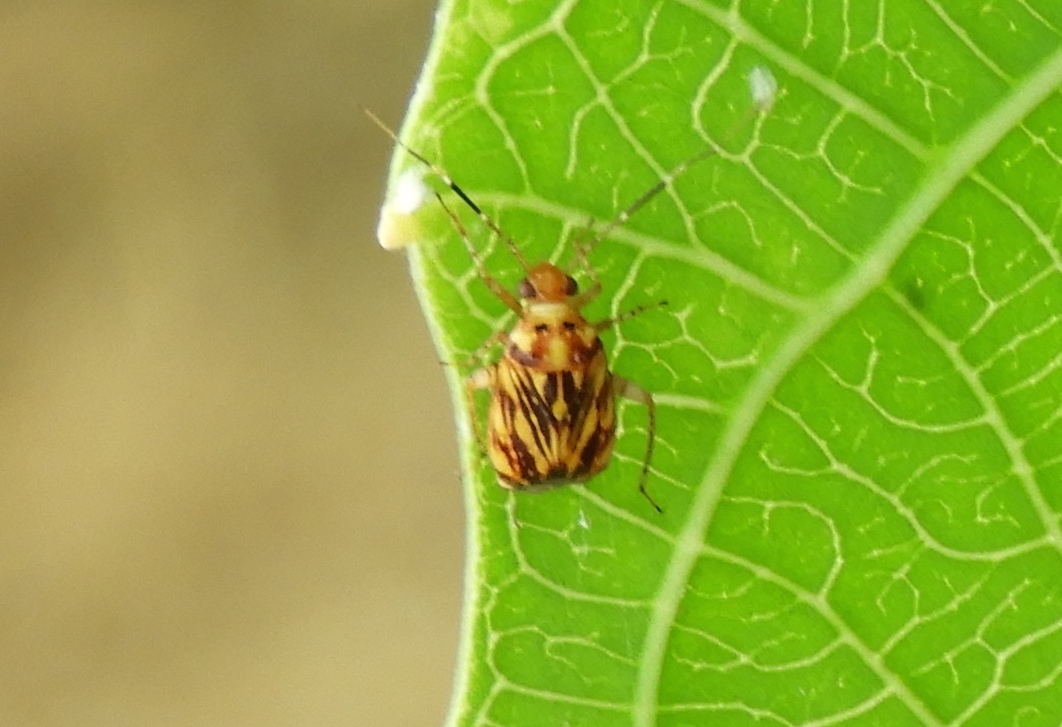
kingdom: Animalia
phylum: Arthropoda
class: Insecta
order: Hemiptera
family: Miridae
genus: Taedia
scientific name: Taedia fasciola
